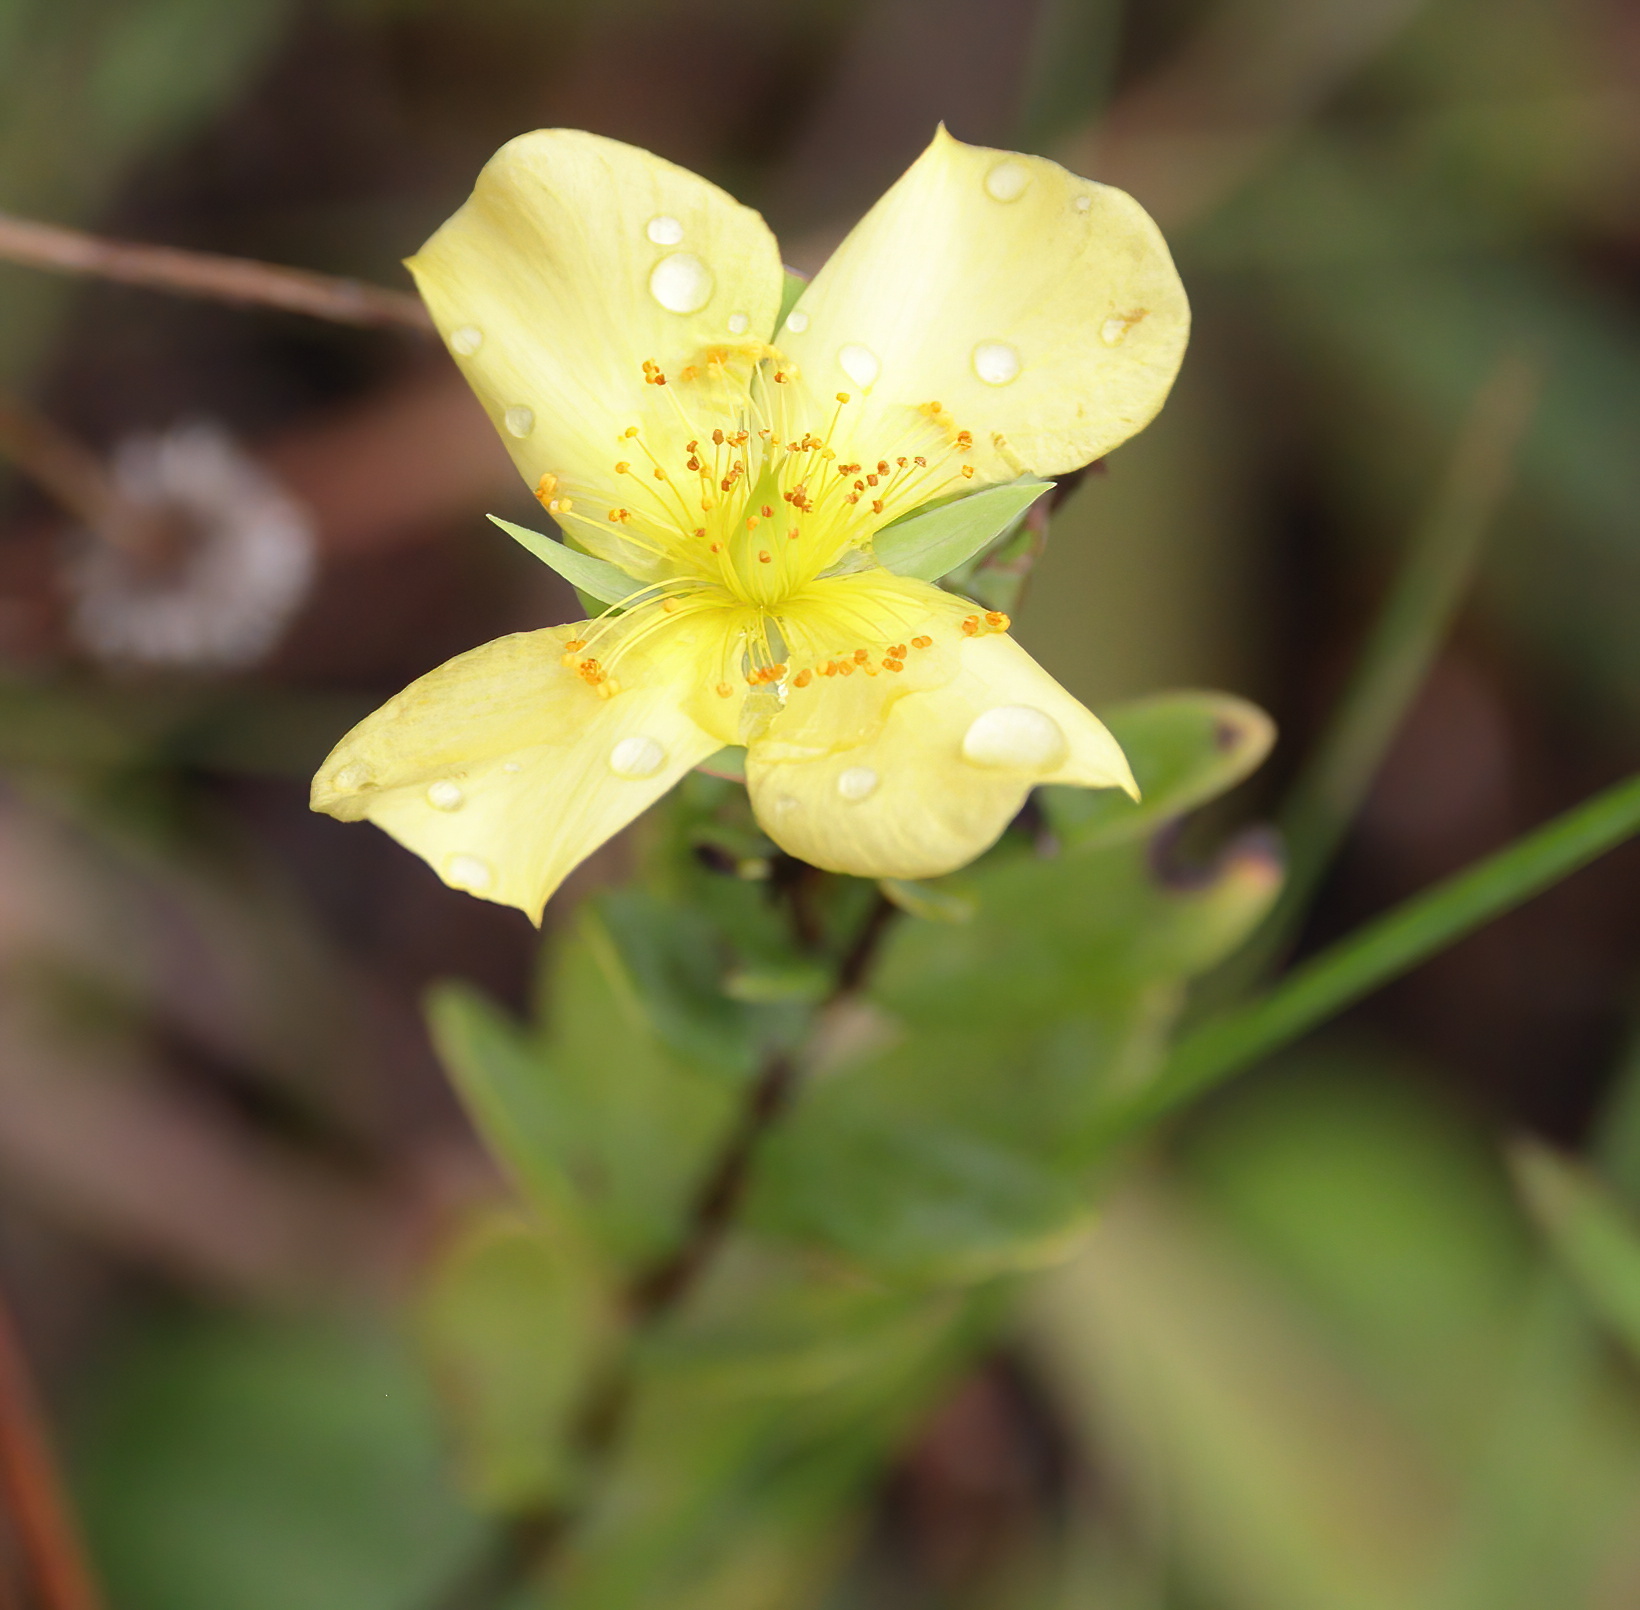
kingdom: Plantae
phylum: Tracheophyta
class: Magnoliopsida
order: Malpighiales
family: Hypericaceae
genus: Hypericum
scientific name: Hypericum crux-andreae
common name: St.-peter's-wort
